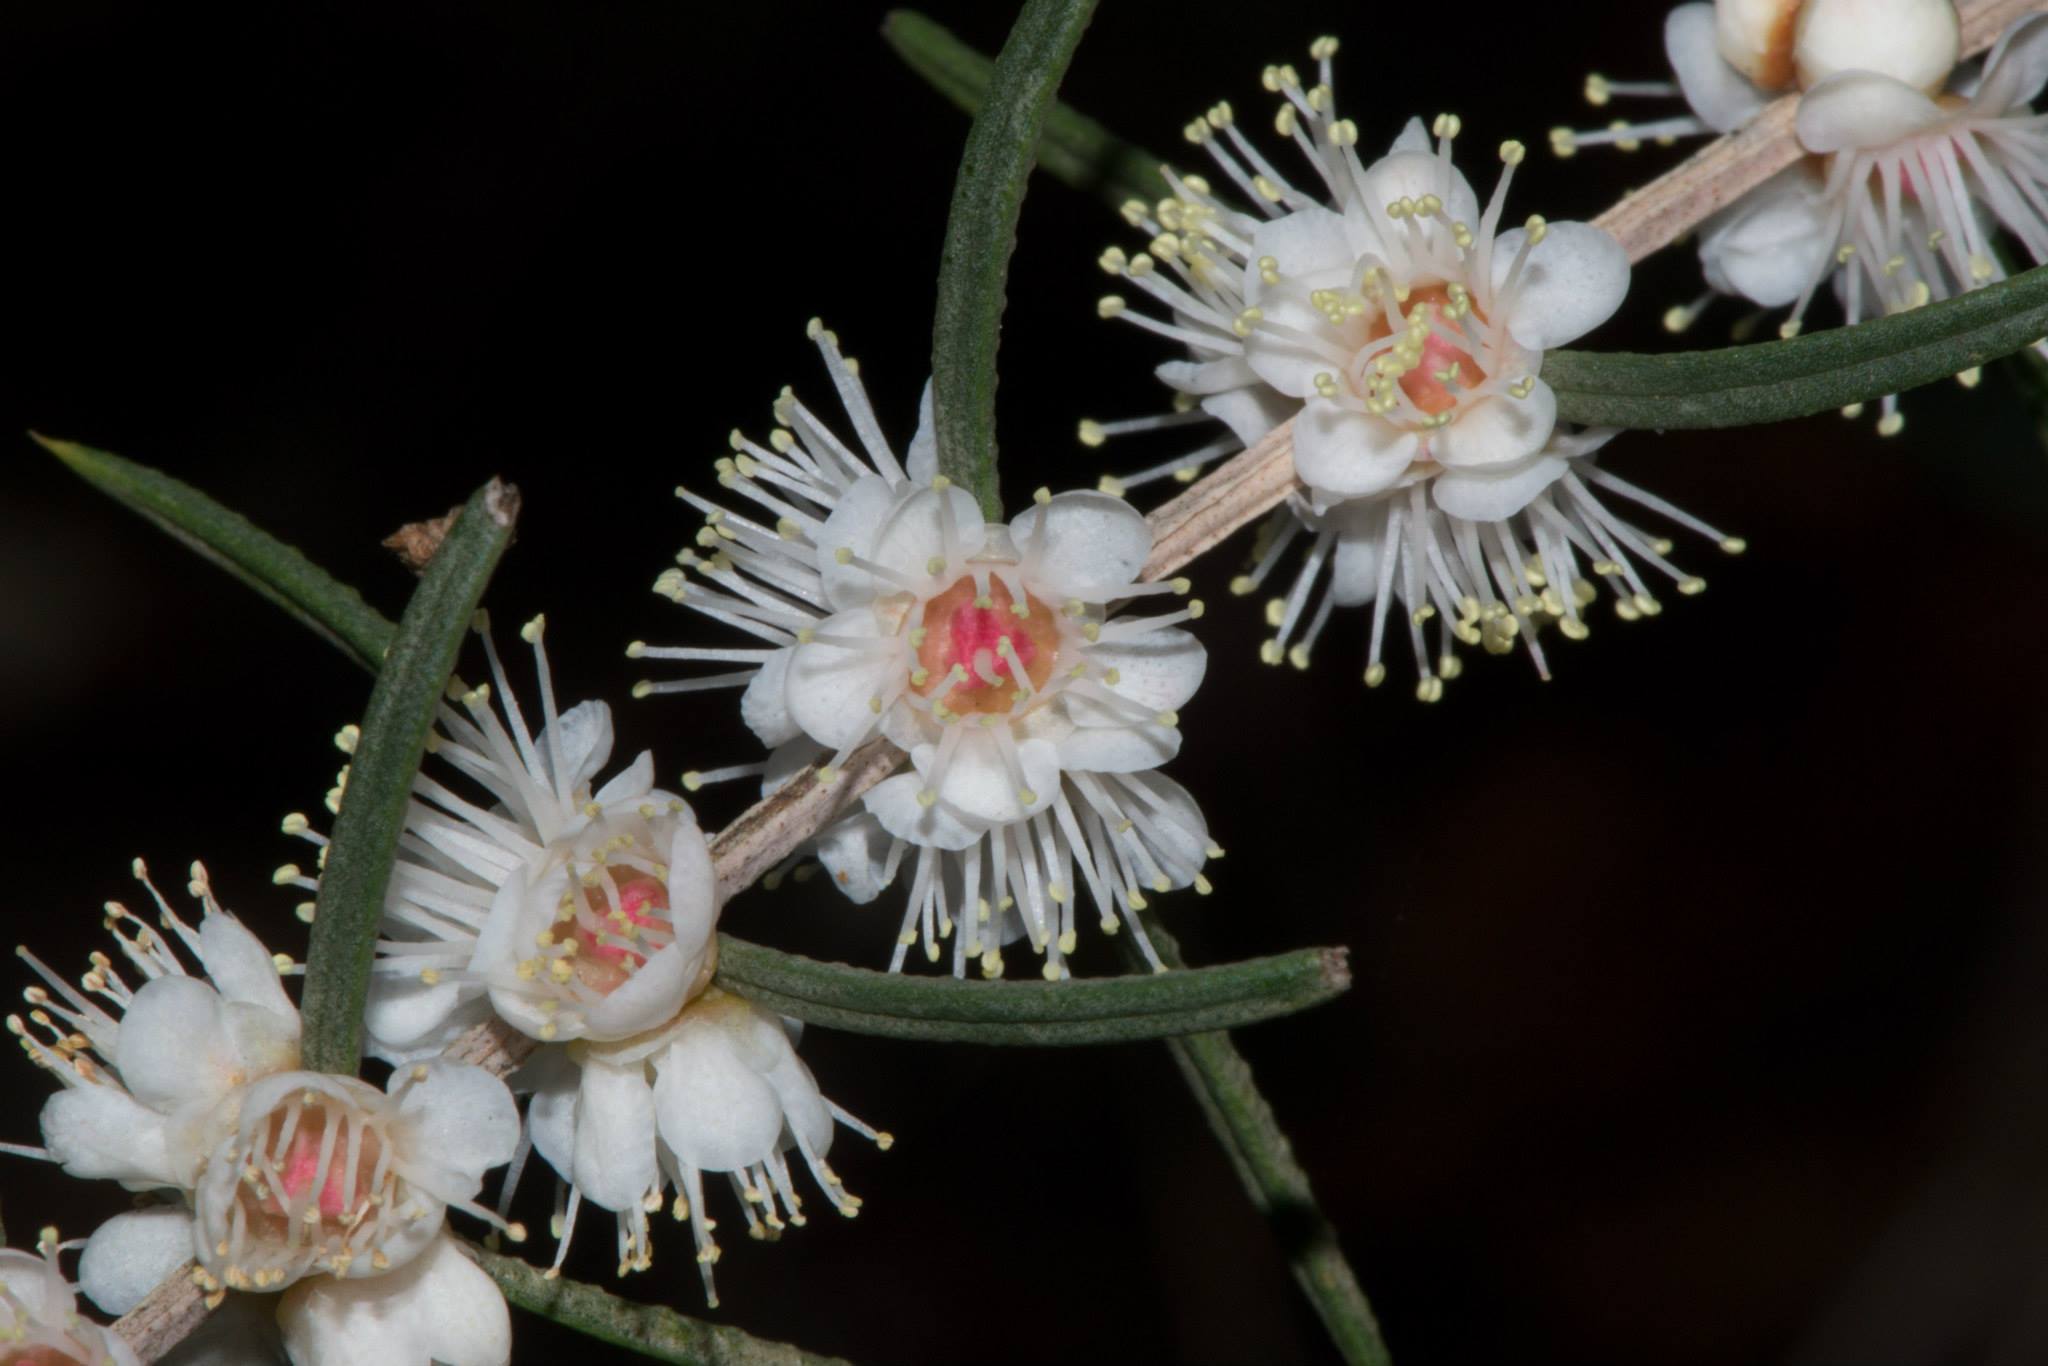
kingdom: Plantae
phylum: Tracheophyta
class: Magnoliopsida
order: Myrtales
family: Myrtaceae
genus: Hypocalymma
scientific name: Hypocalymma angustifolium
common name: White myrtle
